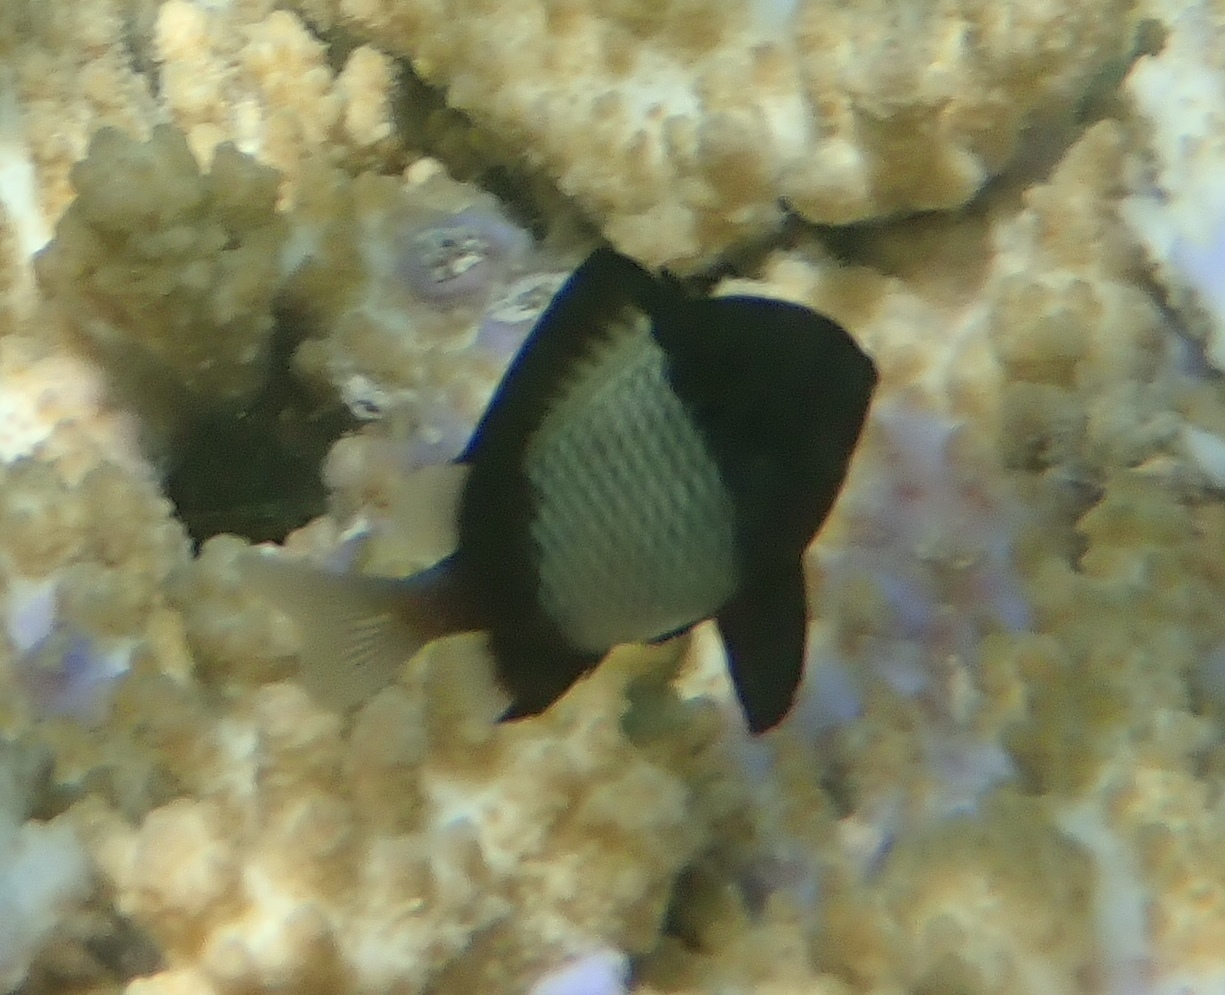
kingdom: Animalia
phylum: Chordata
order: Perciformes
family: Pomacentridae
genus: Dascyllus
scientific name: Dascyllus reticulatus
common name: Reticulated dascyllus
